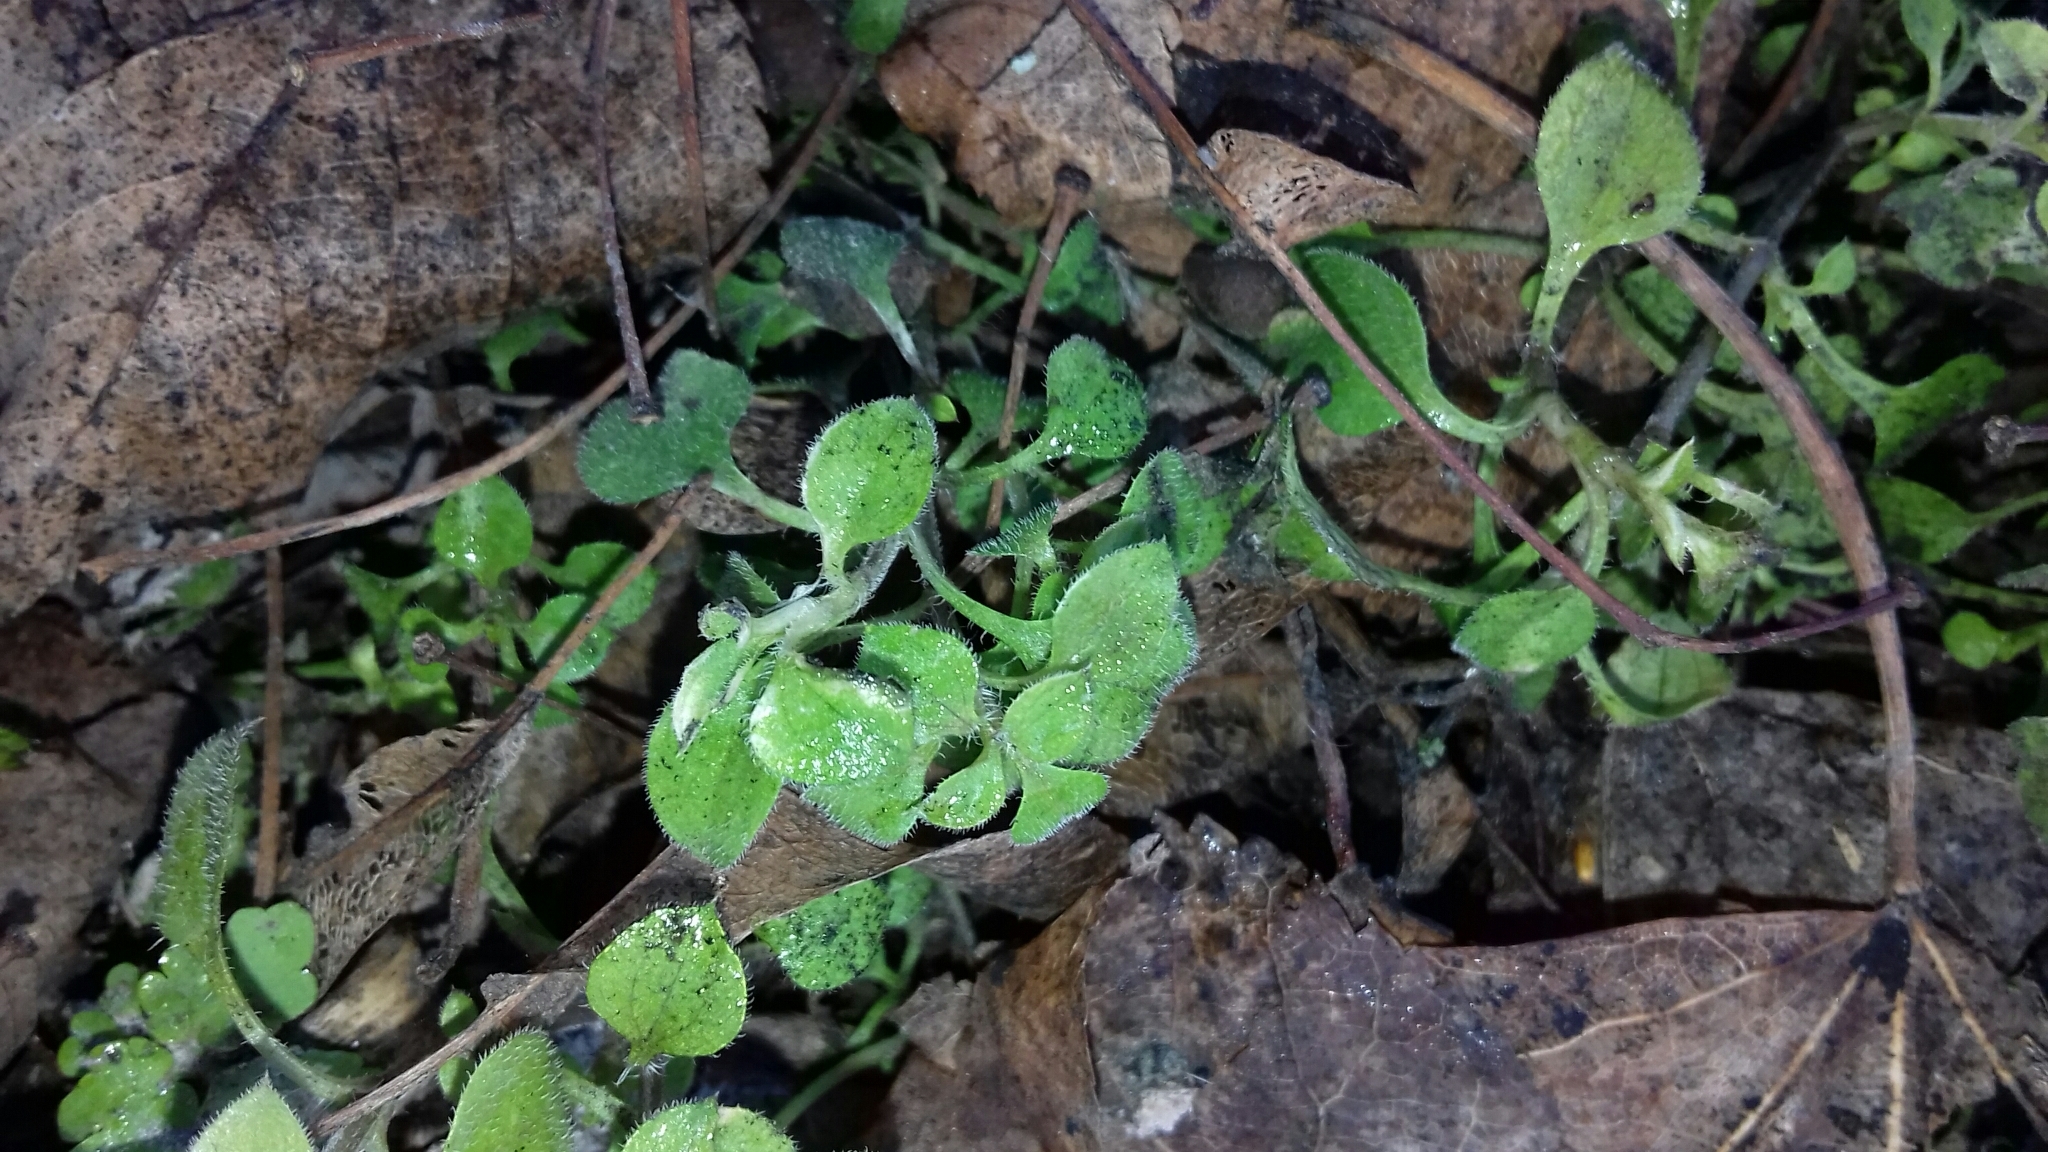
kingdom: Plantae
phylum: Tracheophyta
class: Magnoliopsida
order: Caryophyllales
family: Caryophyllaceae
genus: Moehringia
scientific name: Moehringia trinervia
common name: Three-nerved sandwort
